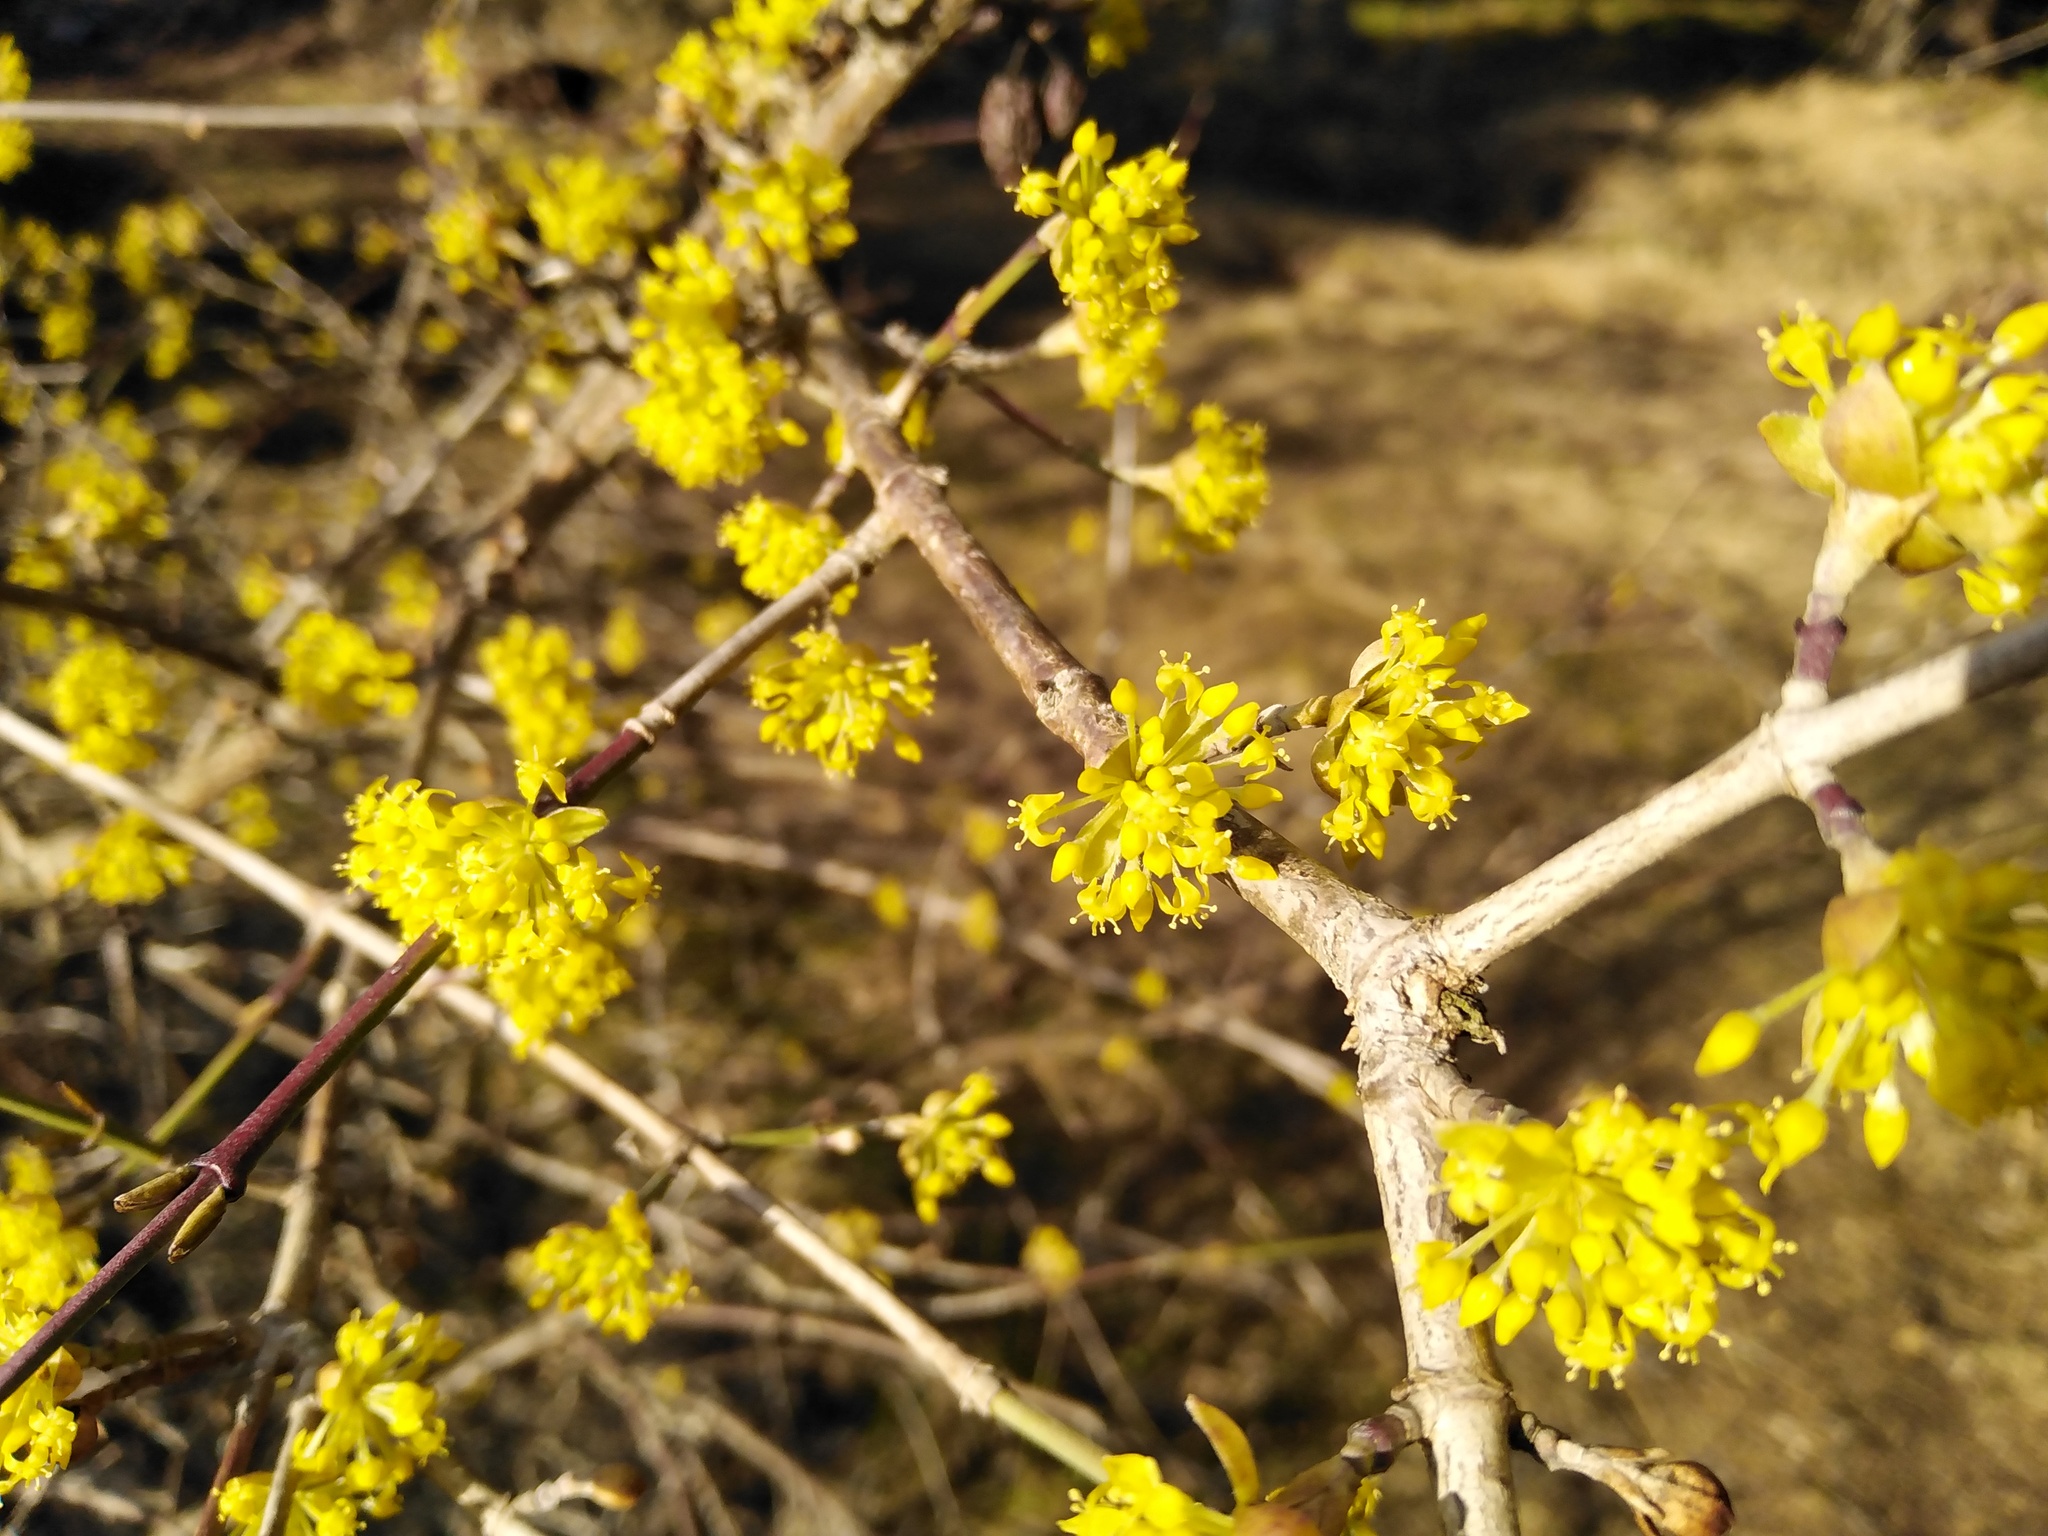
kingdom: Plantae
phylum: Tracheophyta
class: Magnoliopsida
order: Cornales
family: Cornaceae
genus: Cornus
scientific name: Cornus mas
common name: Cornelian-cherry
